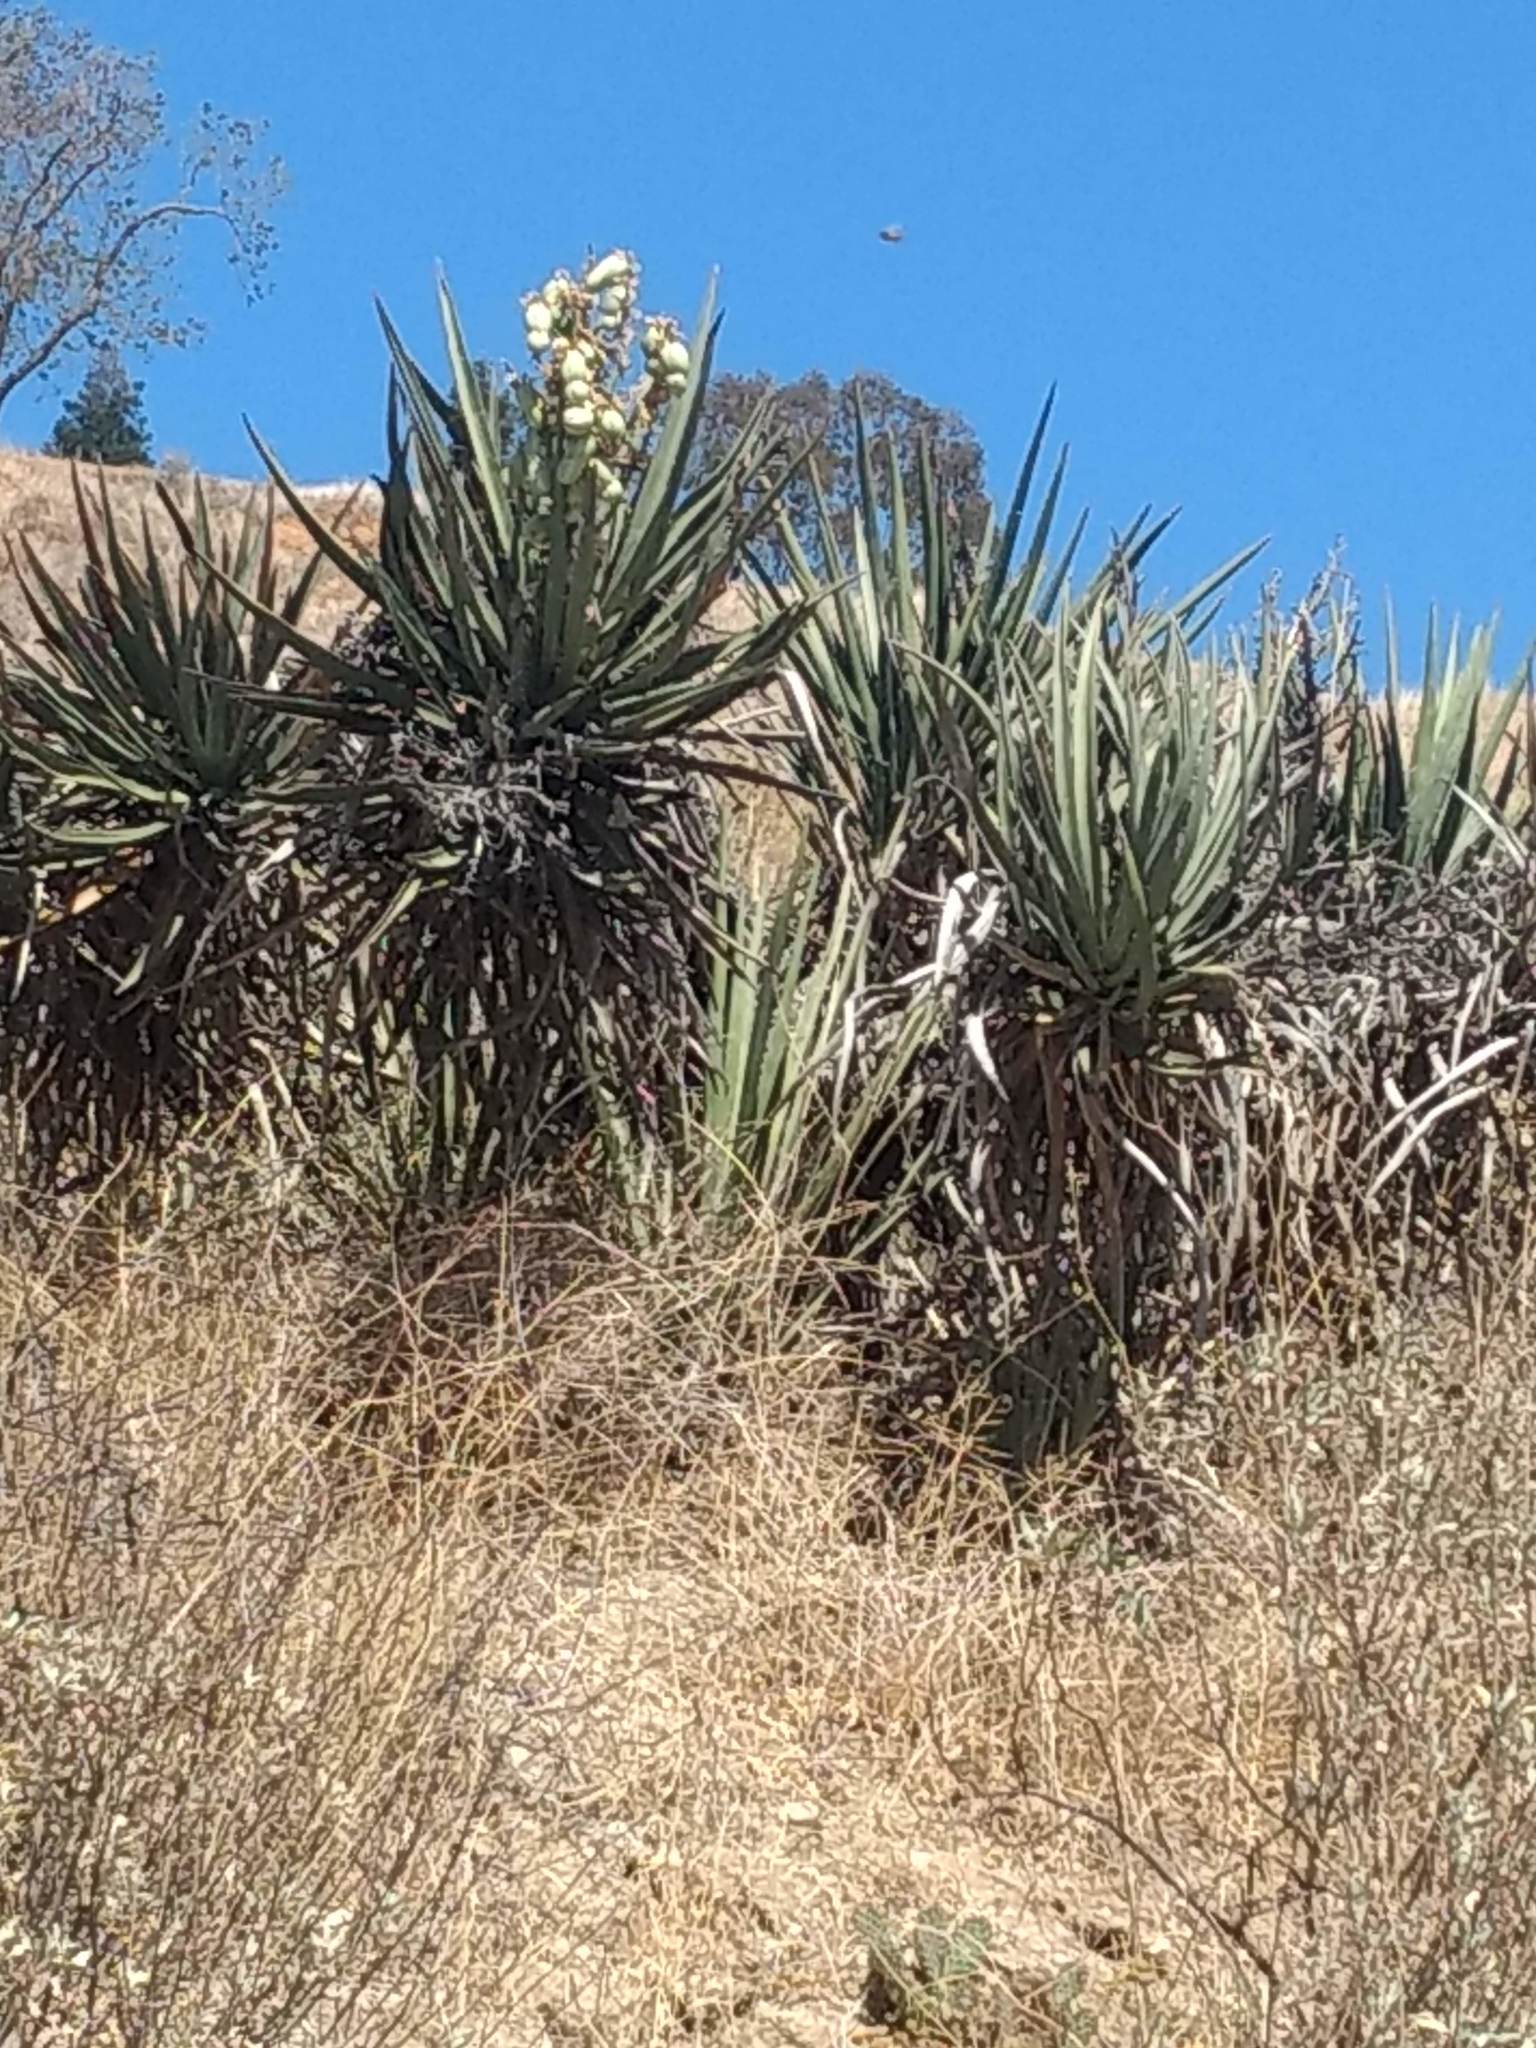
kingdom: Plantae
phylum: Tracheophyta
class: Liliopsida
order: Asparagales
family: Asparagaceae
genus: Yucca
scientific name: Yucca schidigera
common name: Mojave yucca
